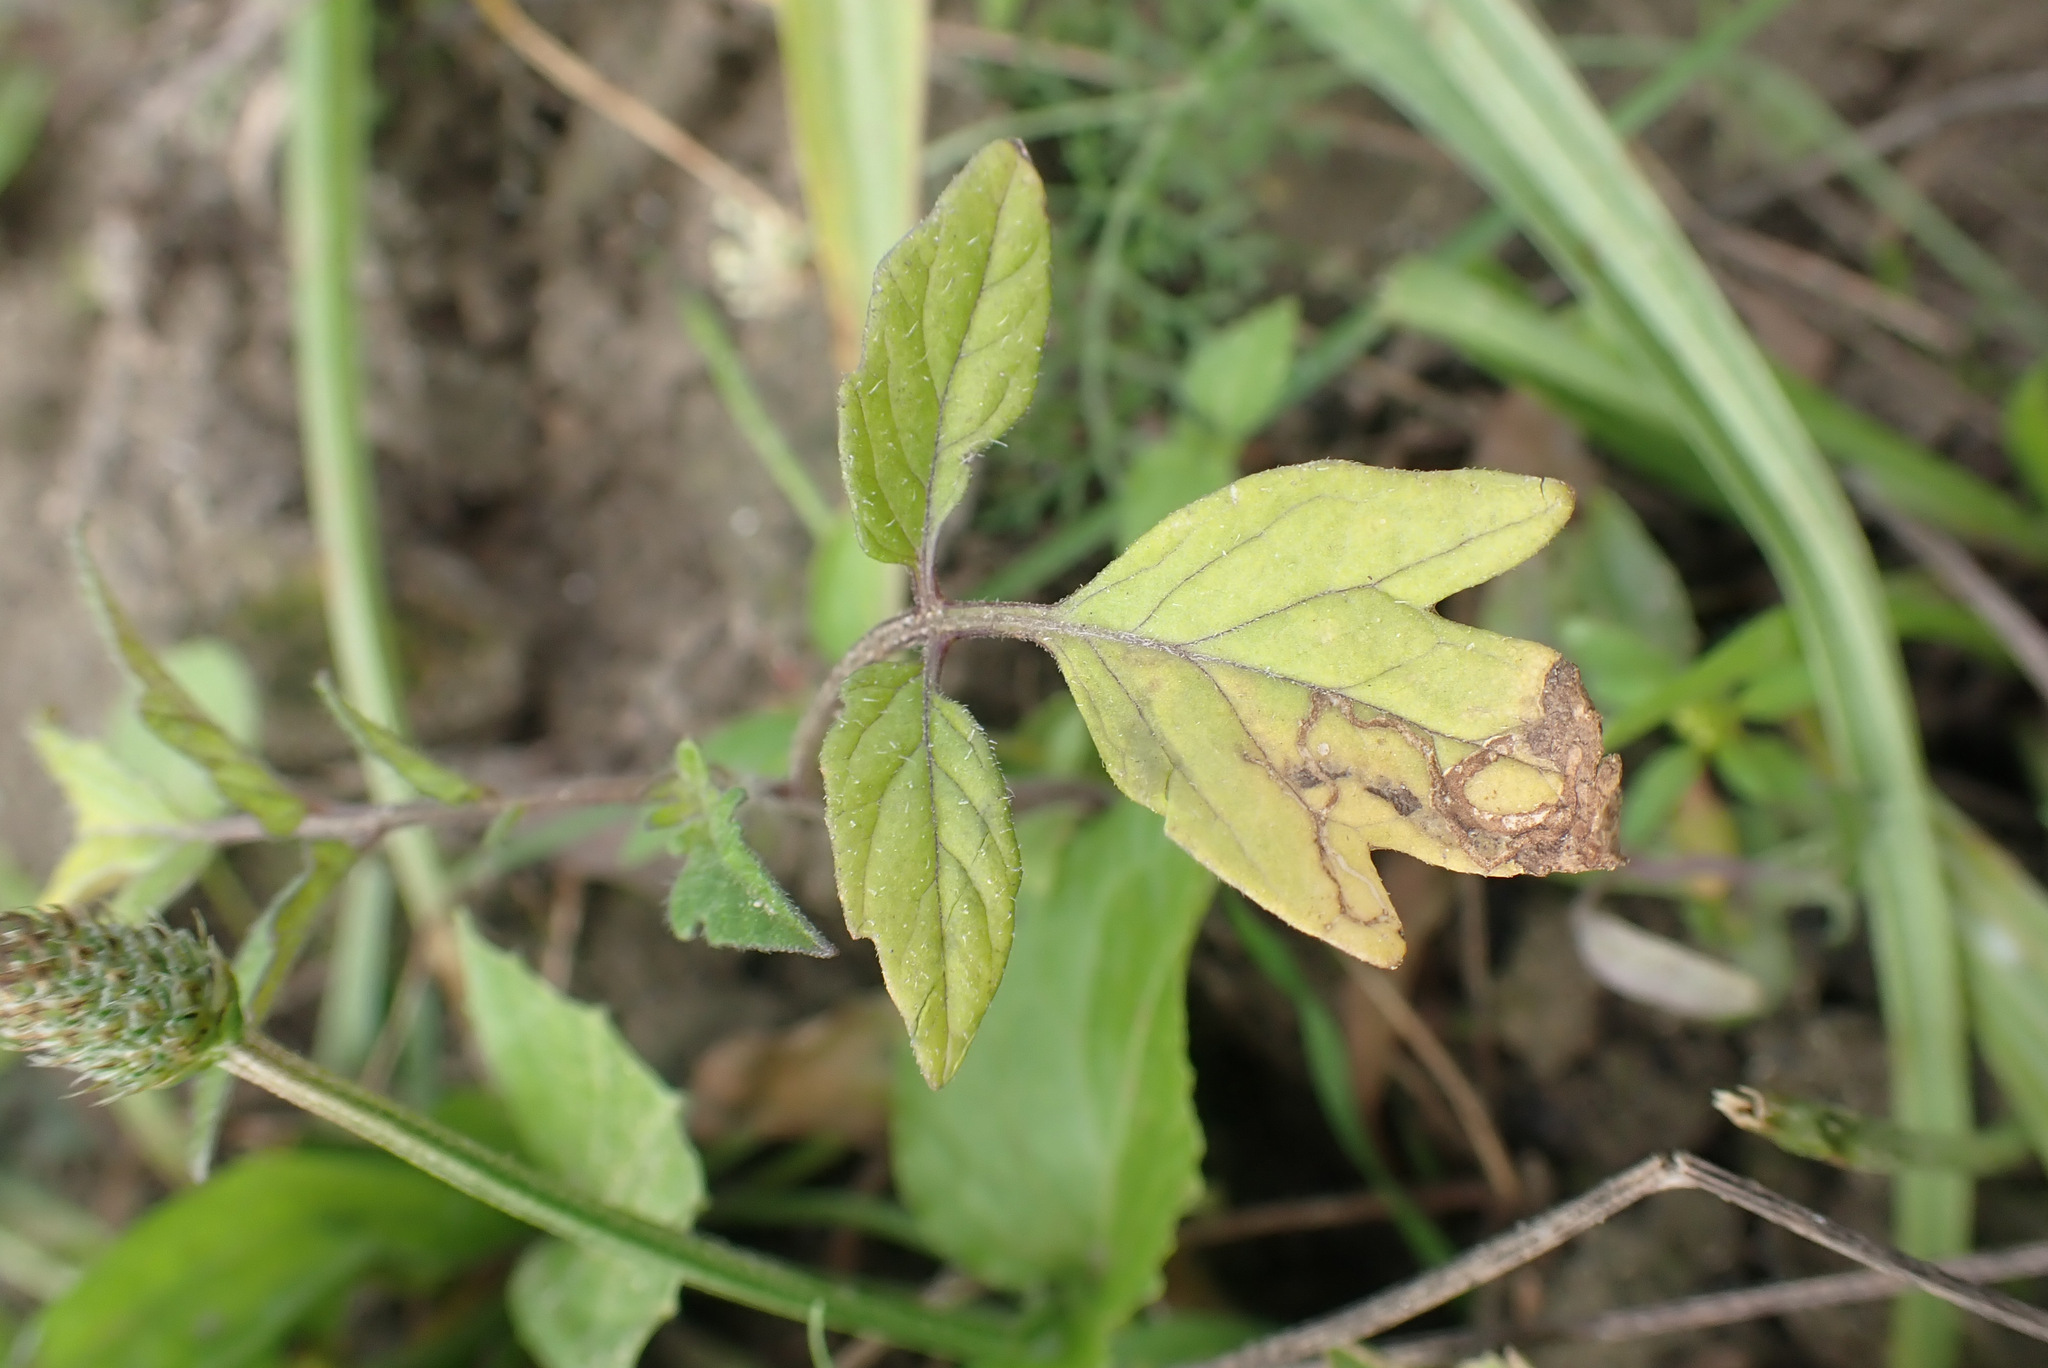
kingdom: Plantae
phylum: Tracheophyta
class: Magnoliopsida
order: Solanales
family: Solanaceae
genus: Solanum
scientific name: Solanum lycopersicum
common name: Garden tomato
